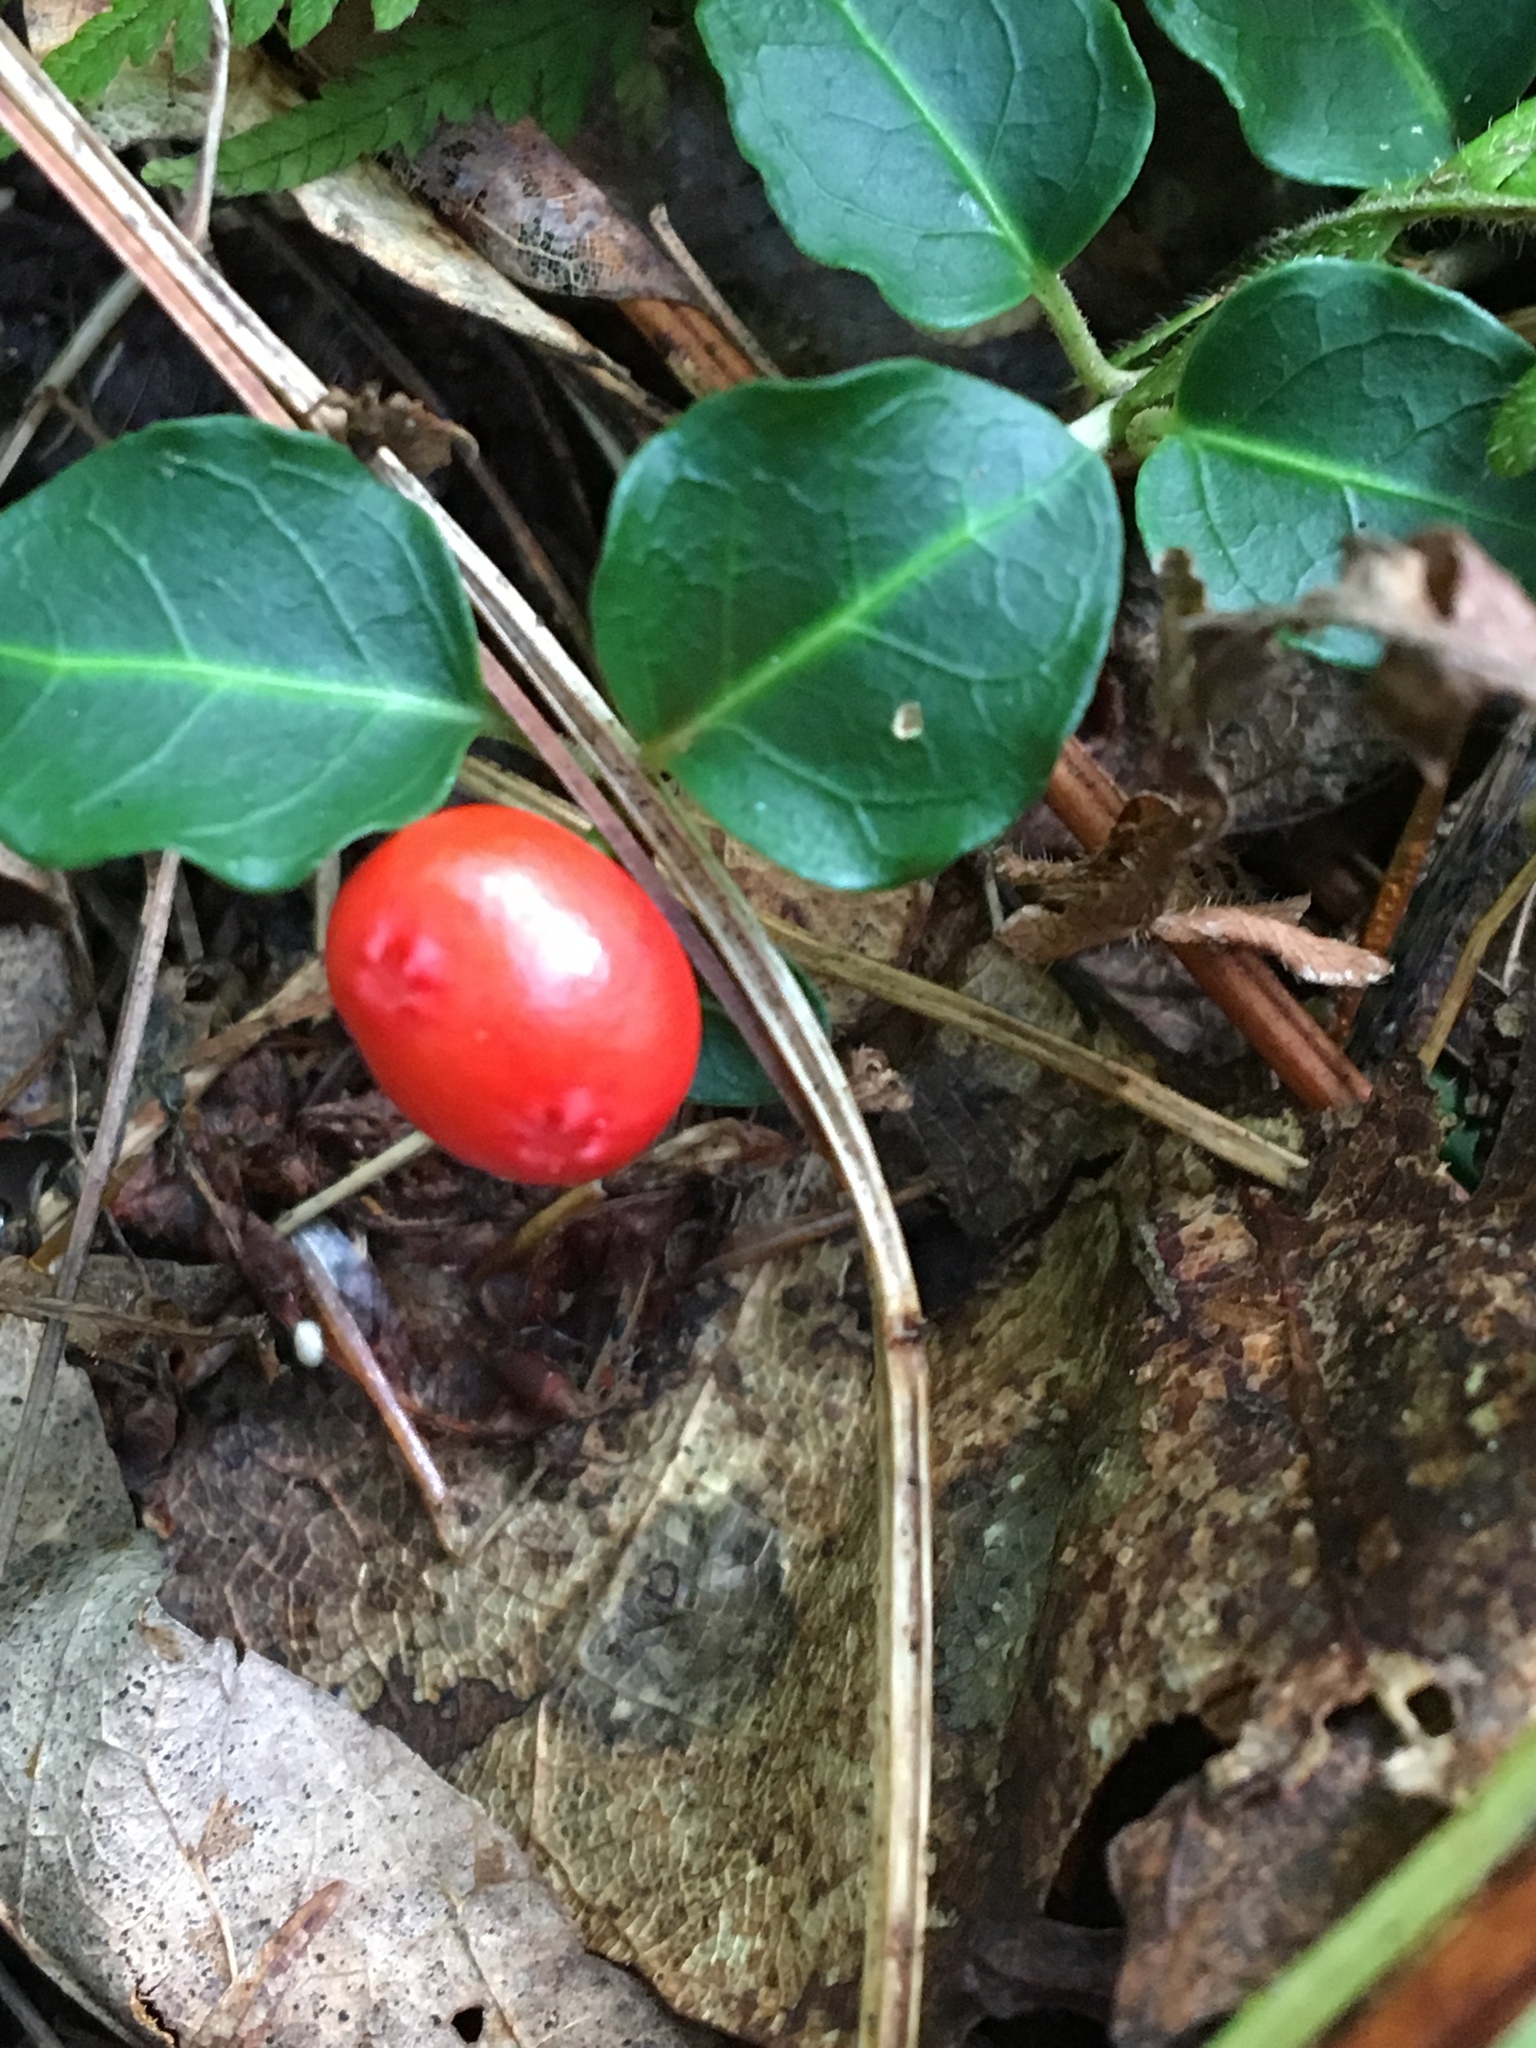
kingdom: Plantae
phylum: Tracheophyta
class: Magnoliopsida
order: Gentianales
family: Rubiaceae
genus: Mitchella
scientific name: Mitchella repens
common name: Partridge-berry
